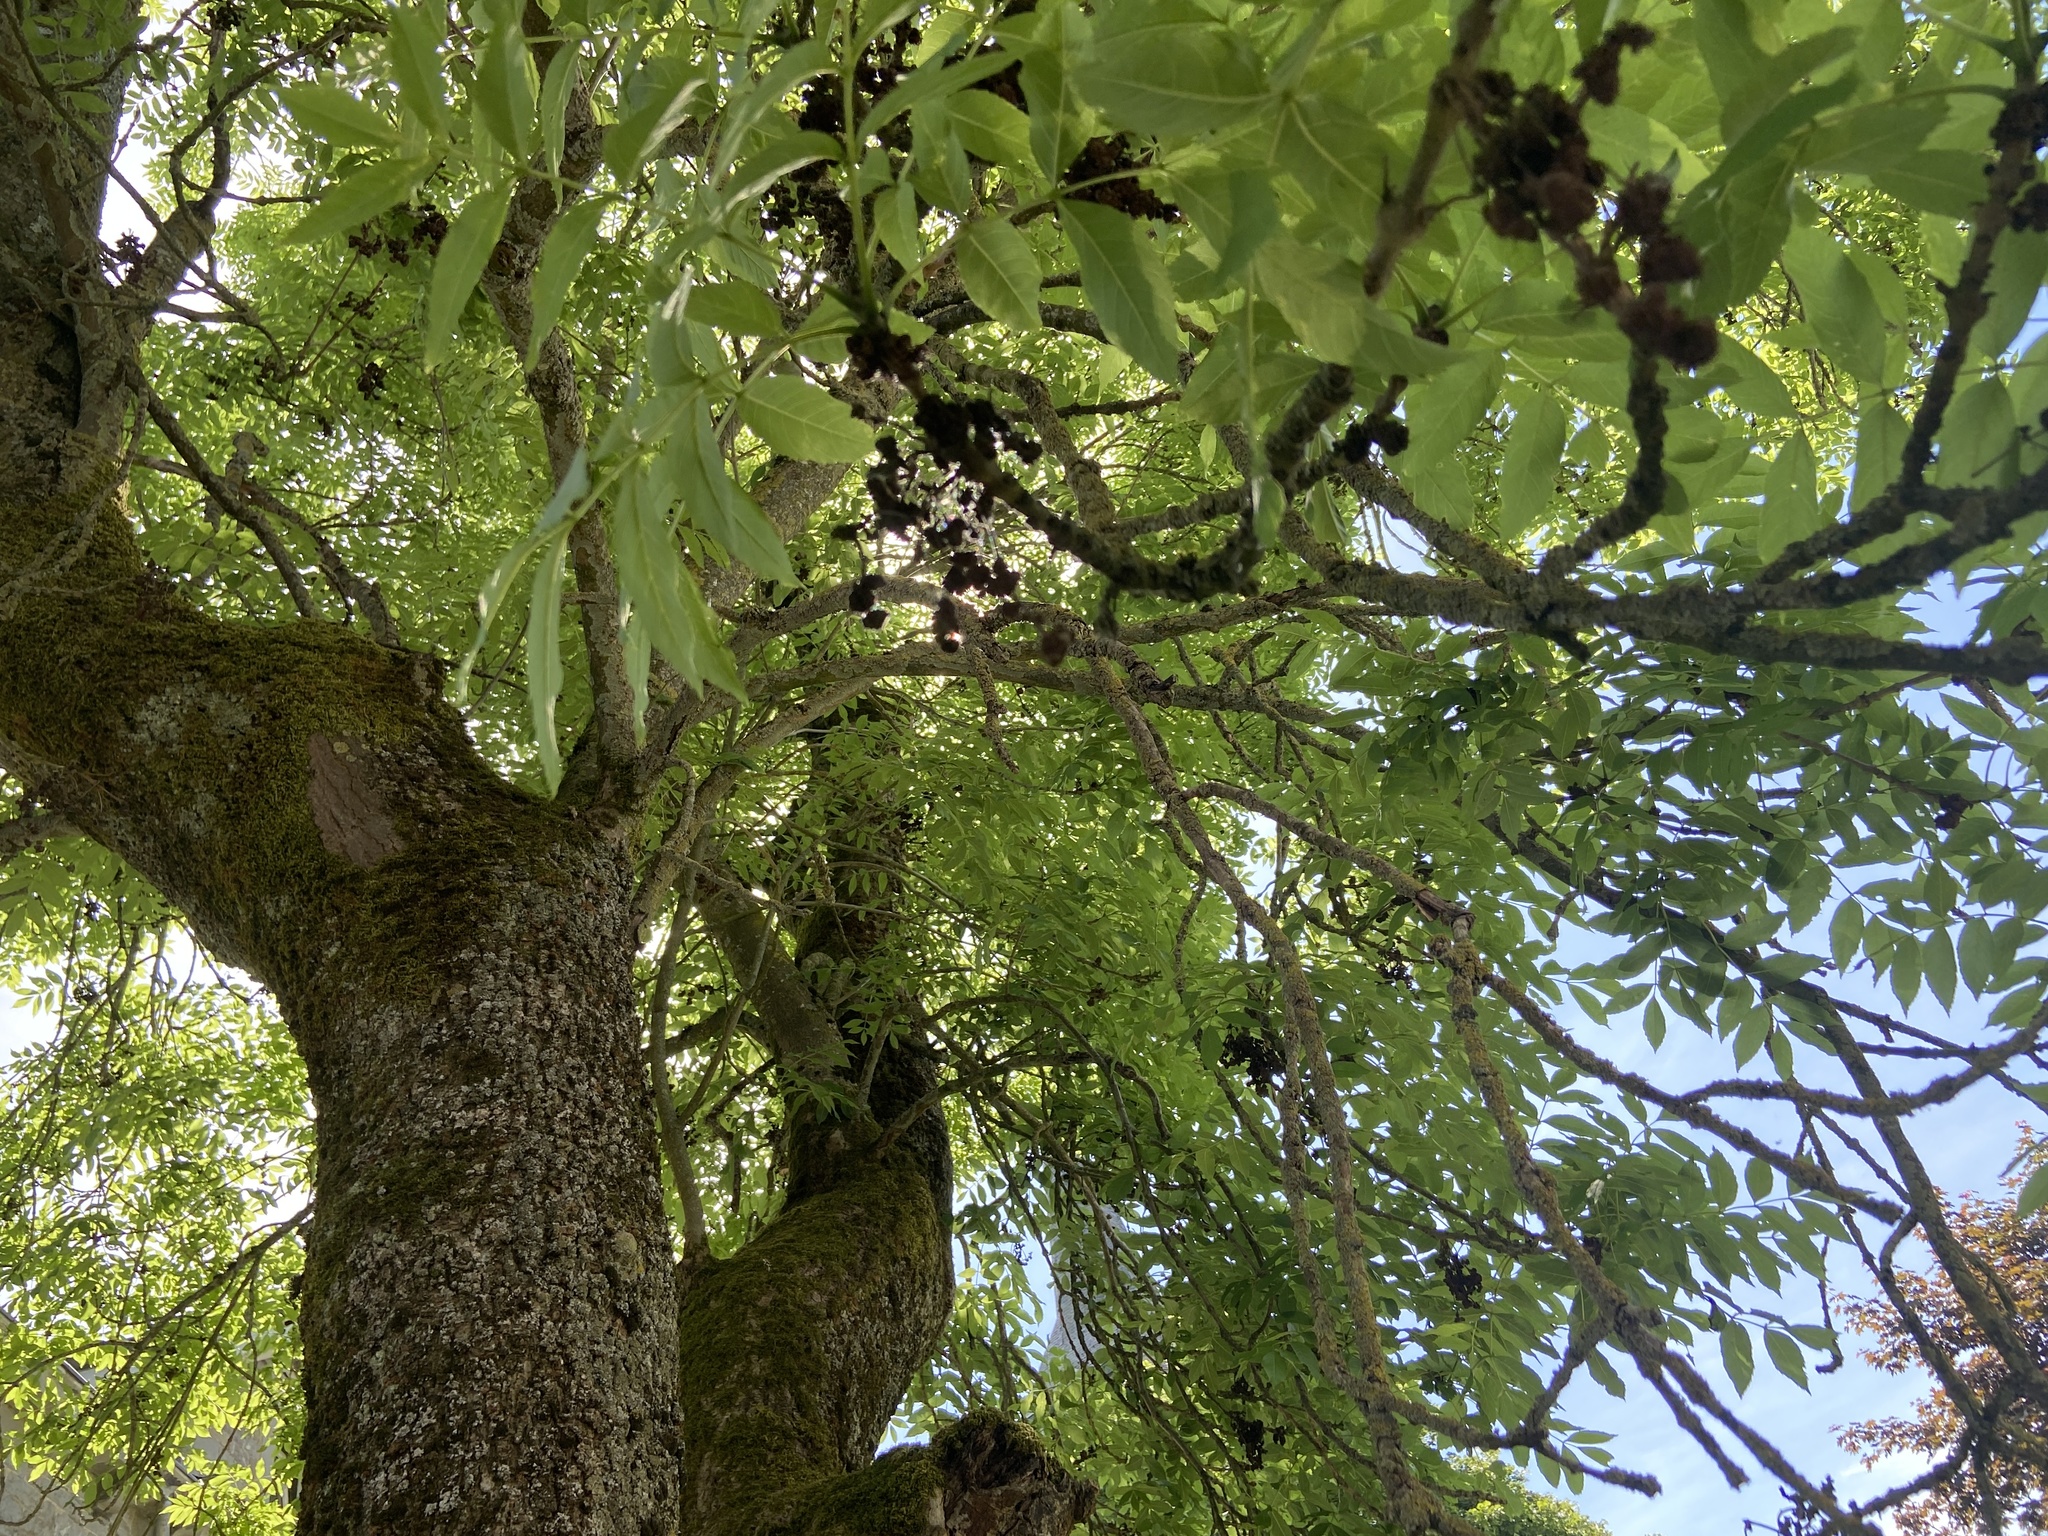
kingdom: Animalia
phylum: Arthropoda
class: Arachnida
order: Trombidiformes
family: Eriophyidae
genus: Aceria
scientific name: Aceria fraxinivora
